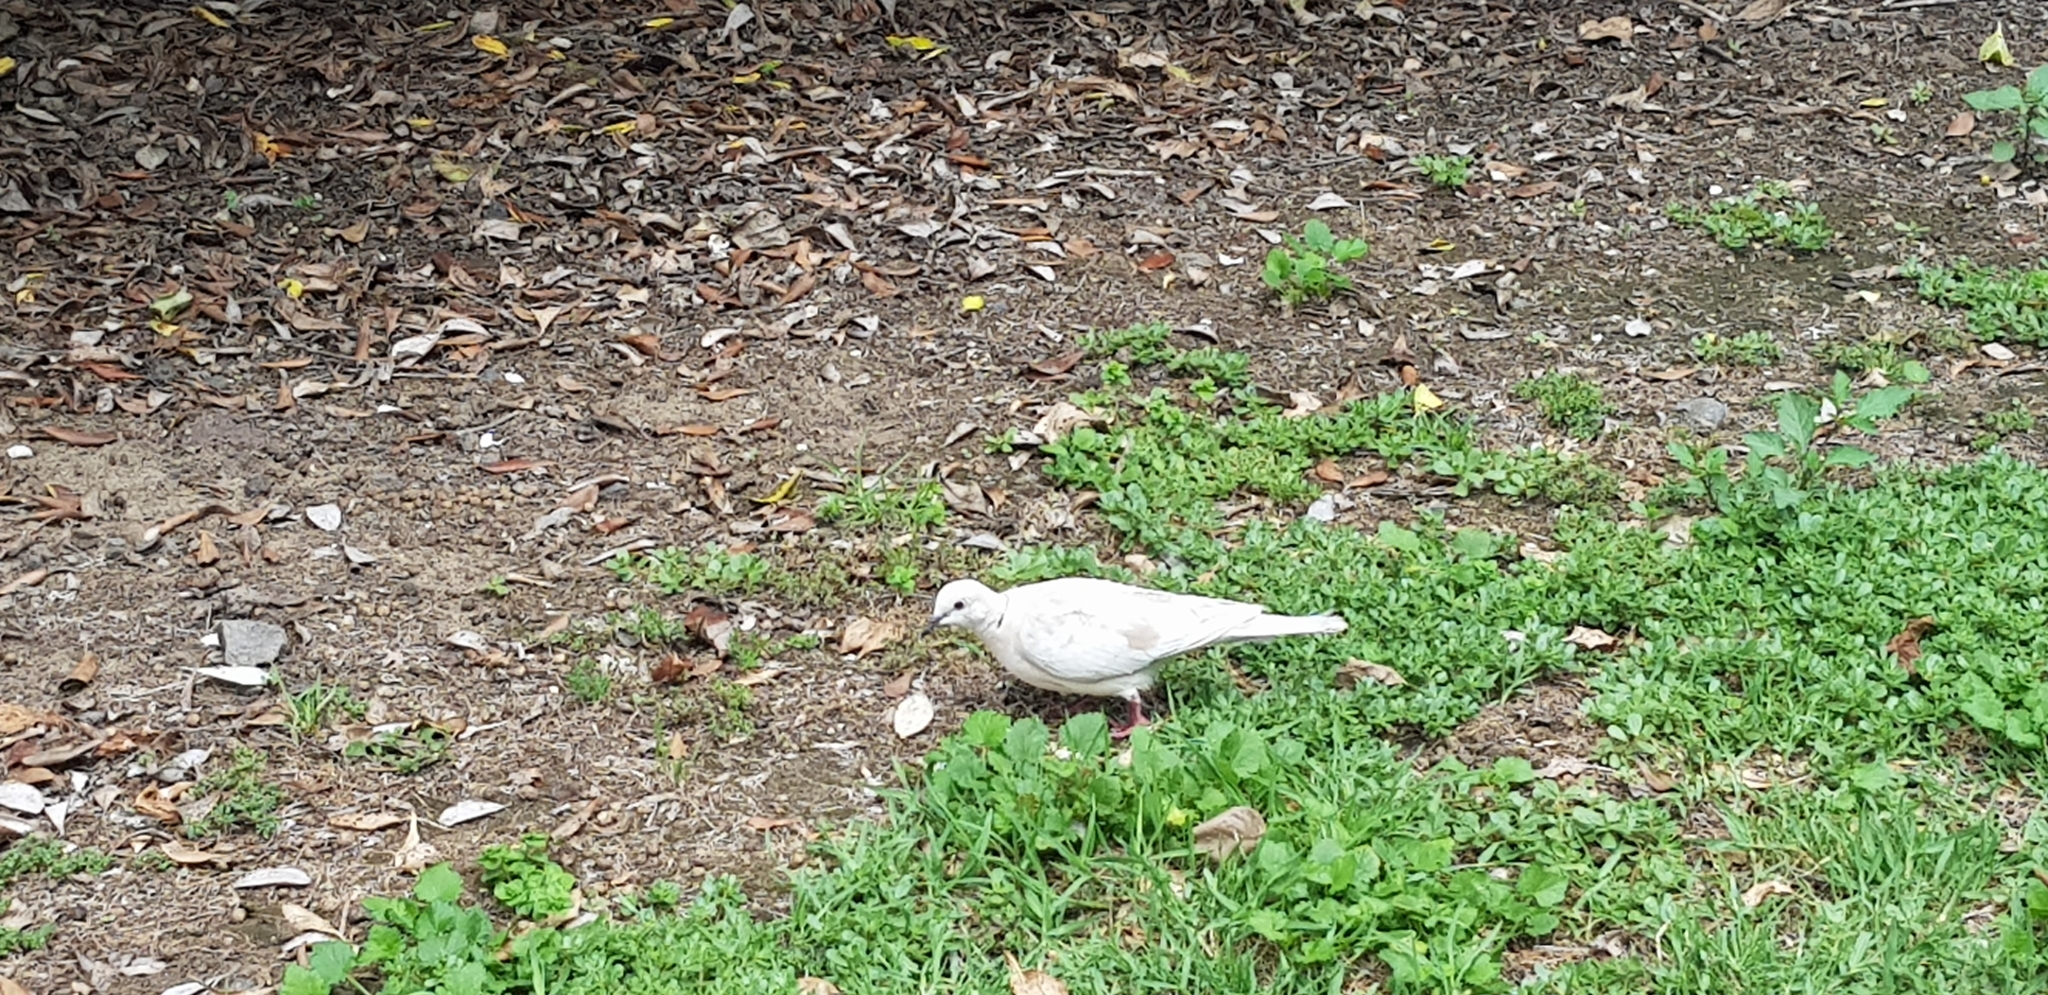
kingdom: Animalia
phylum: Chordata
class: Aves
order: Columbiformes
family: Columbidae
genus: Streptopelia
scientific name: Streptopelia roseogrisea
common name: African collared dove
